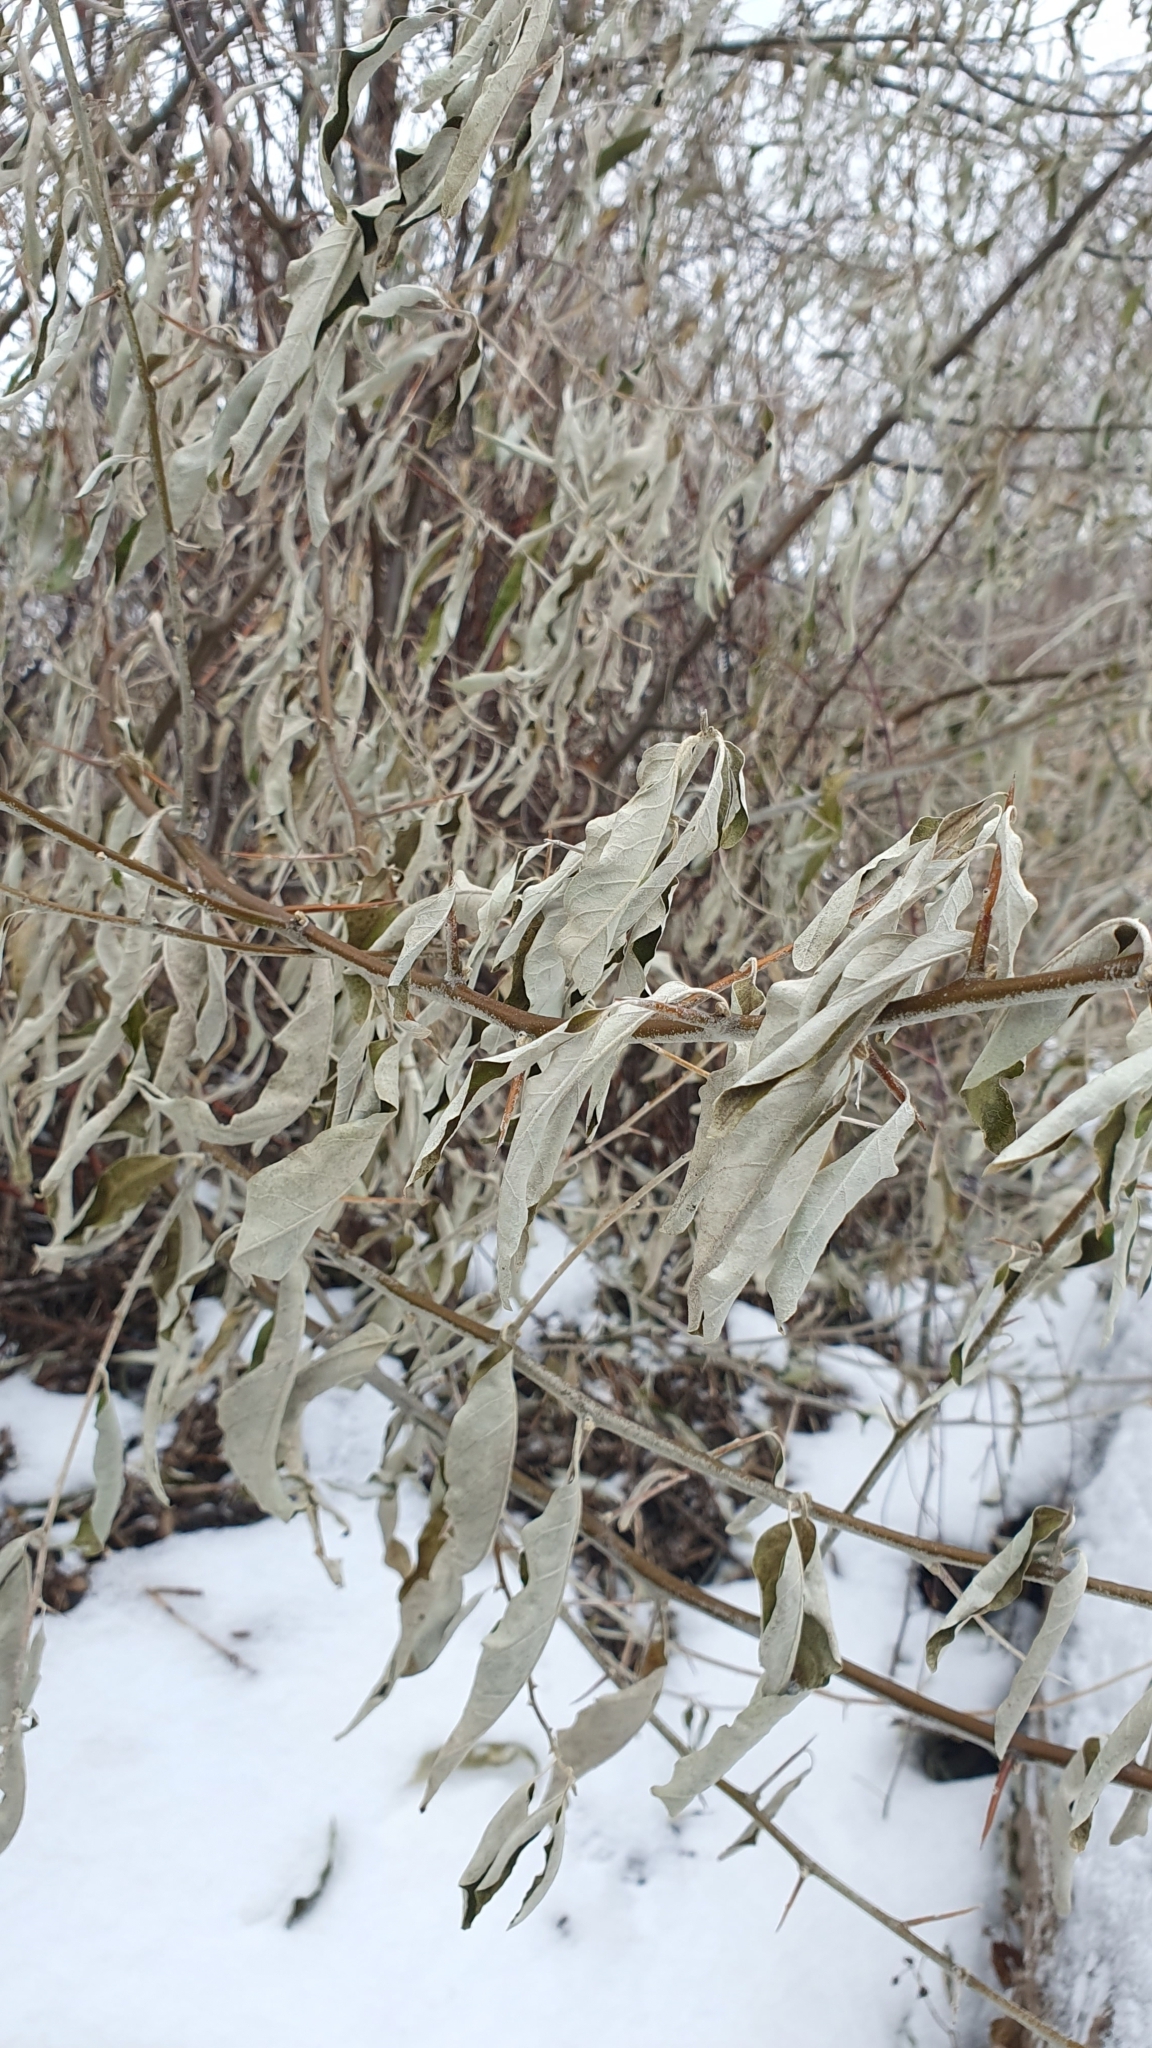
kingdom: Plantae
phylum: Tracheophyta
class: Magnoliopsida
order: Rosales
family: Elaeagnaceae
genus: Elaeagnus
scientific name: Elaeagnus angustifolia
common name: Russian olive
